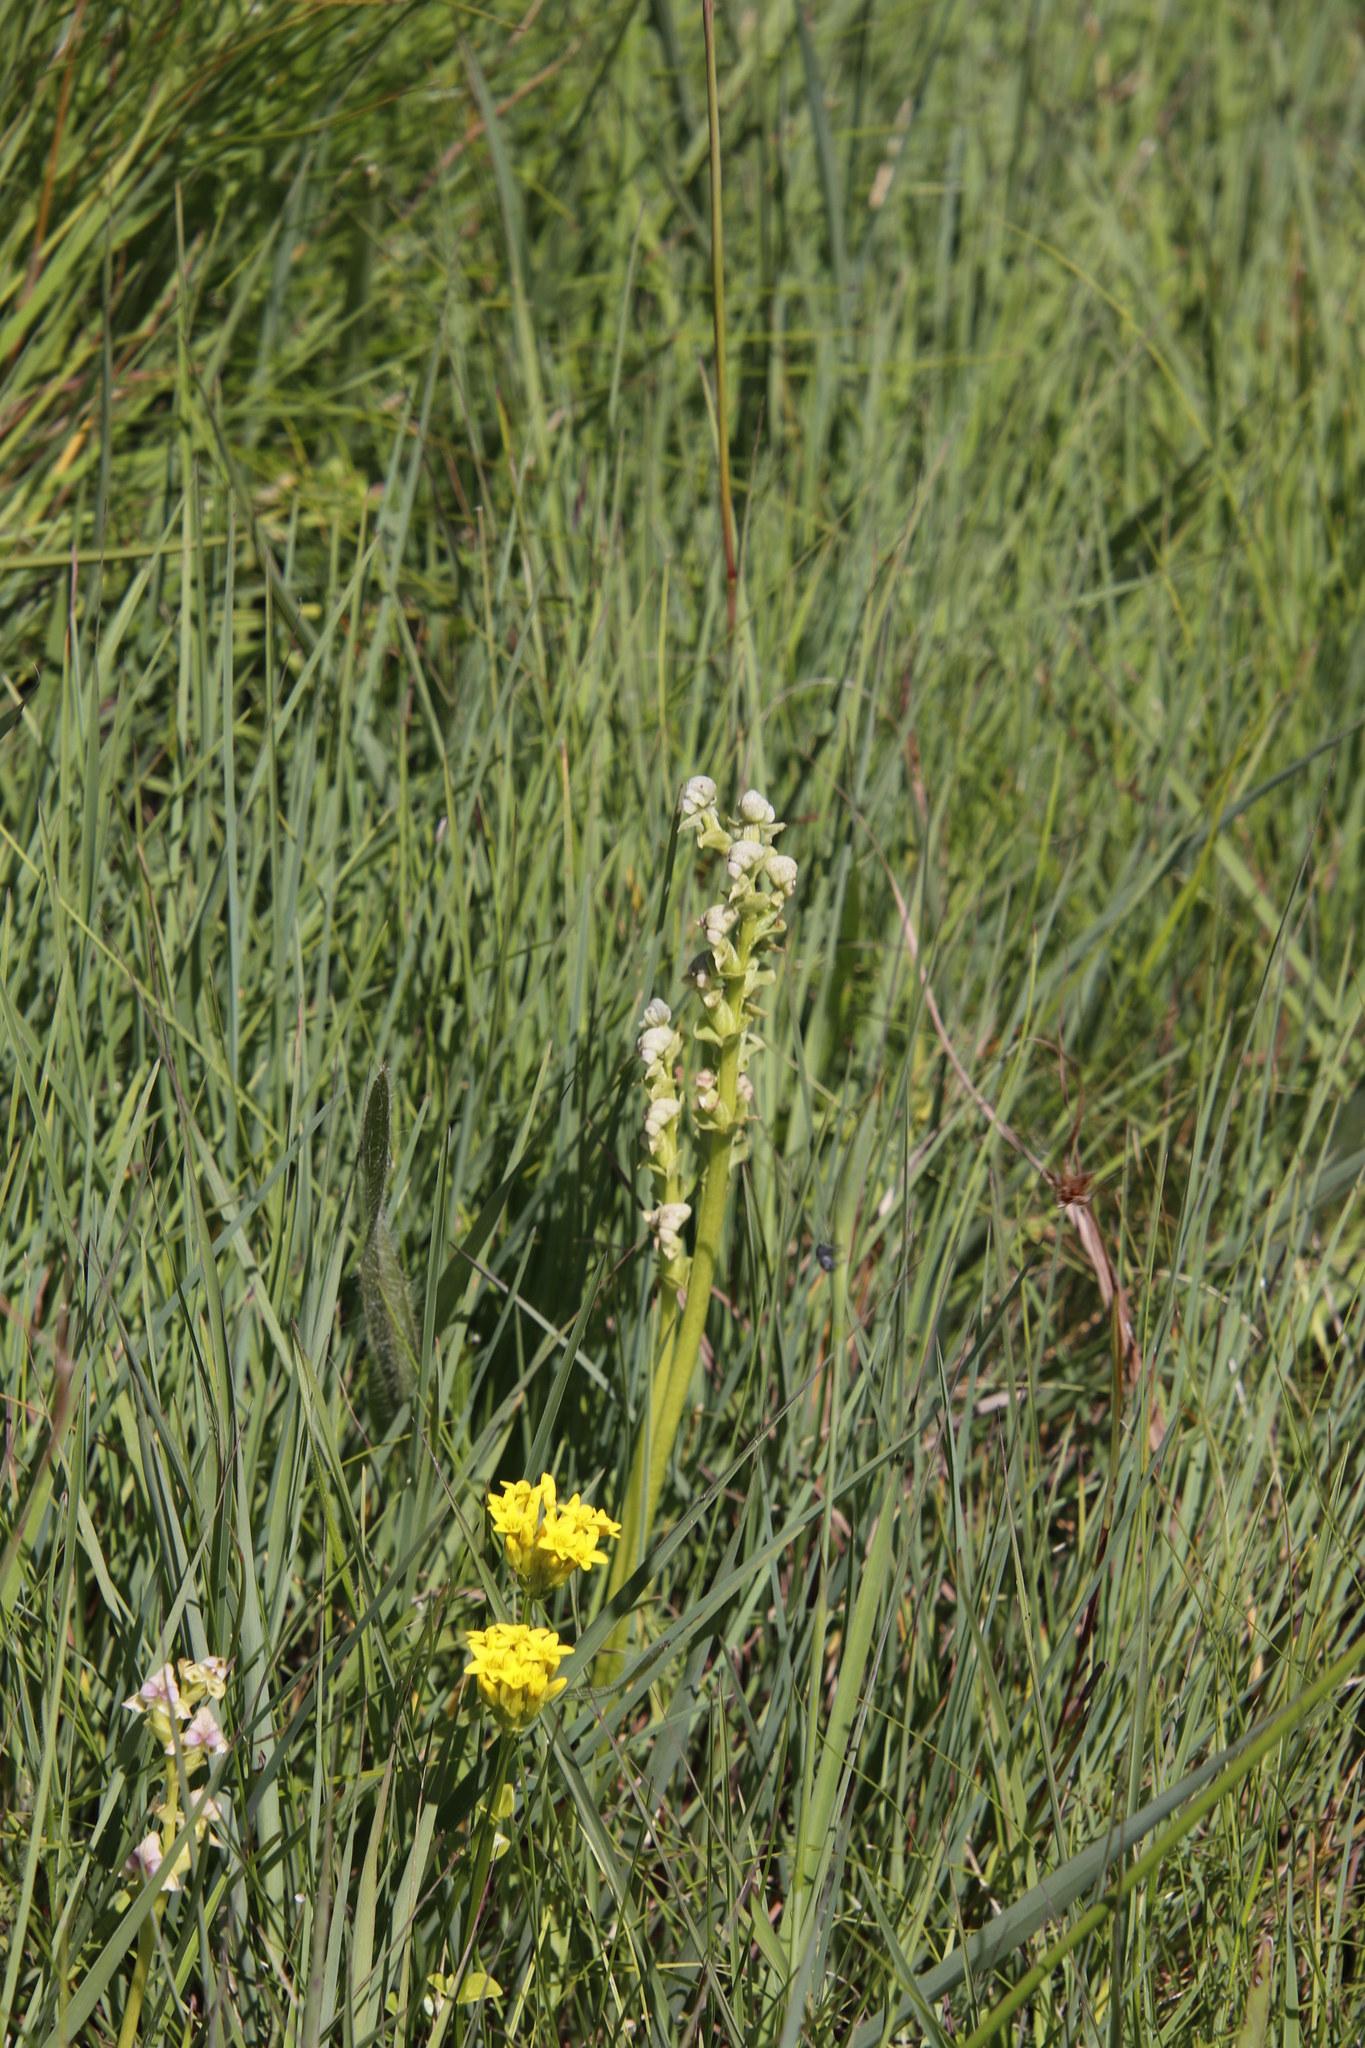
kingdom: Plantae
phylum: Tracheophyta
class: Liliopsida
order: Asparagales
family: Orchidaceae
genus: Disperis
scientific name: Disperis cardiophora
